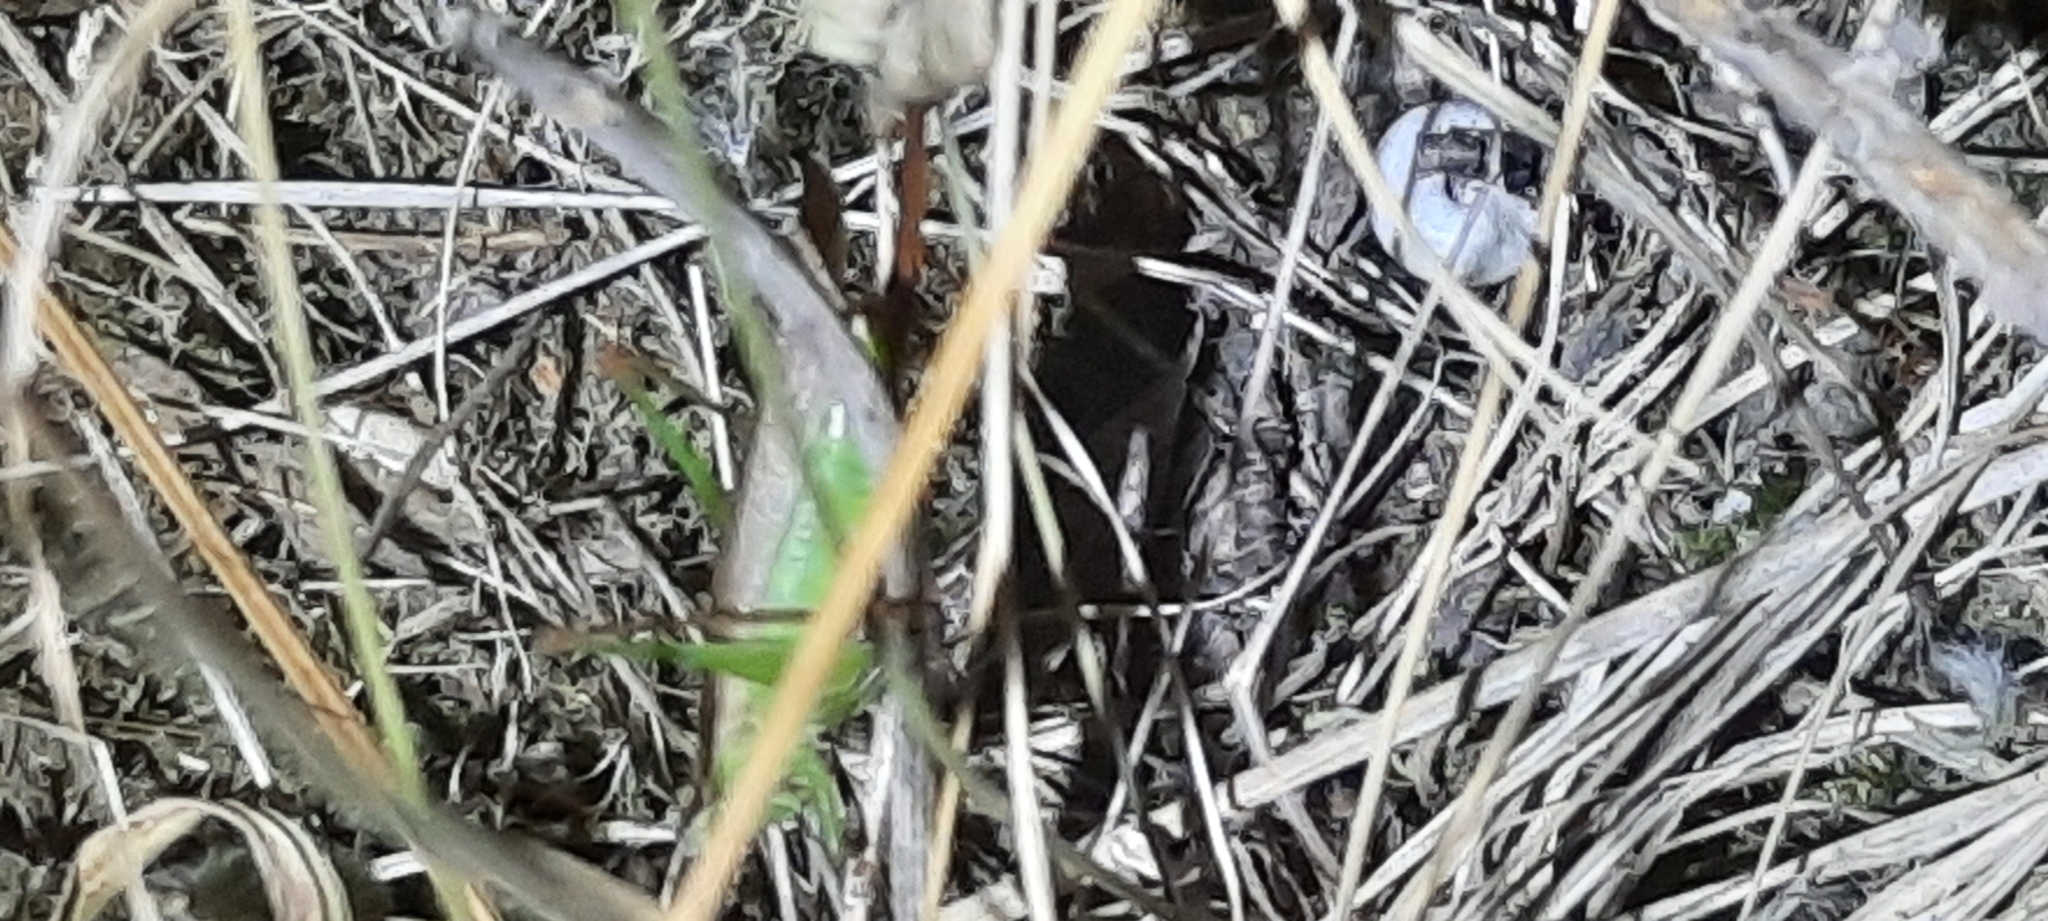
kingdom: Animalia
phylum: Arthropoda
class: Insecta
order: Orthoptera
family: Tettigoniidae
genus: Conocephalus
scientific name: Conocephalus fuscus
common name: Long-winged conehead
